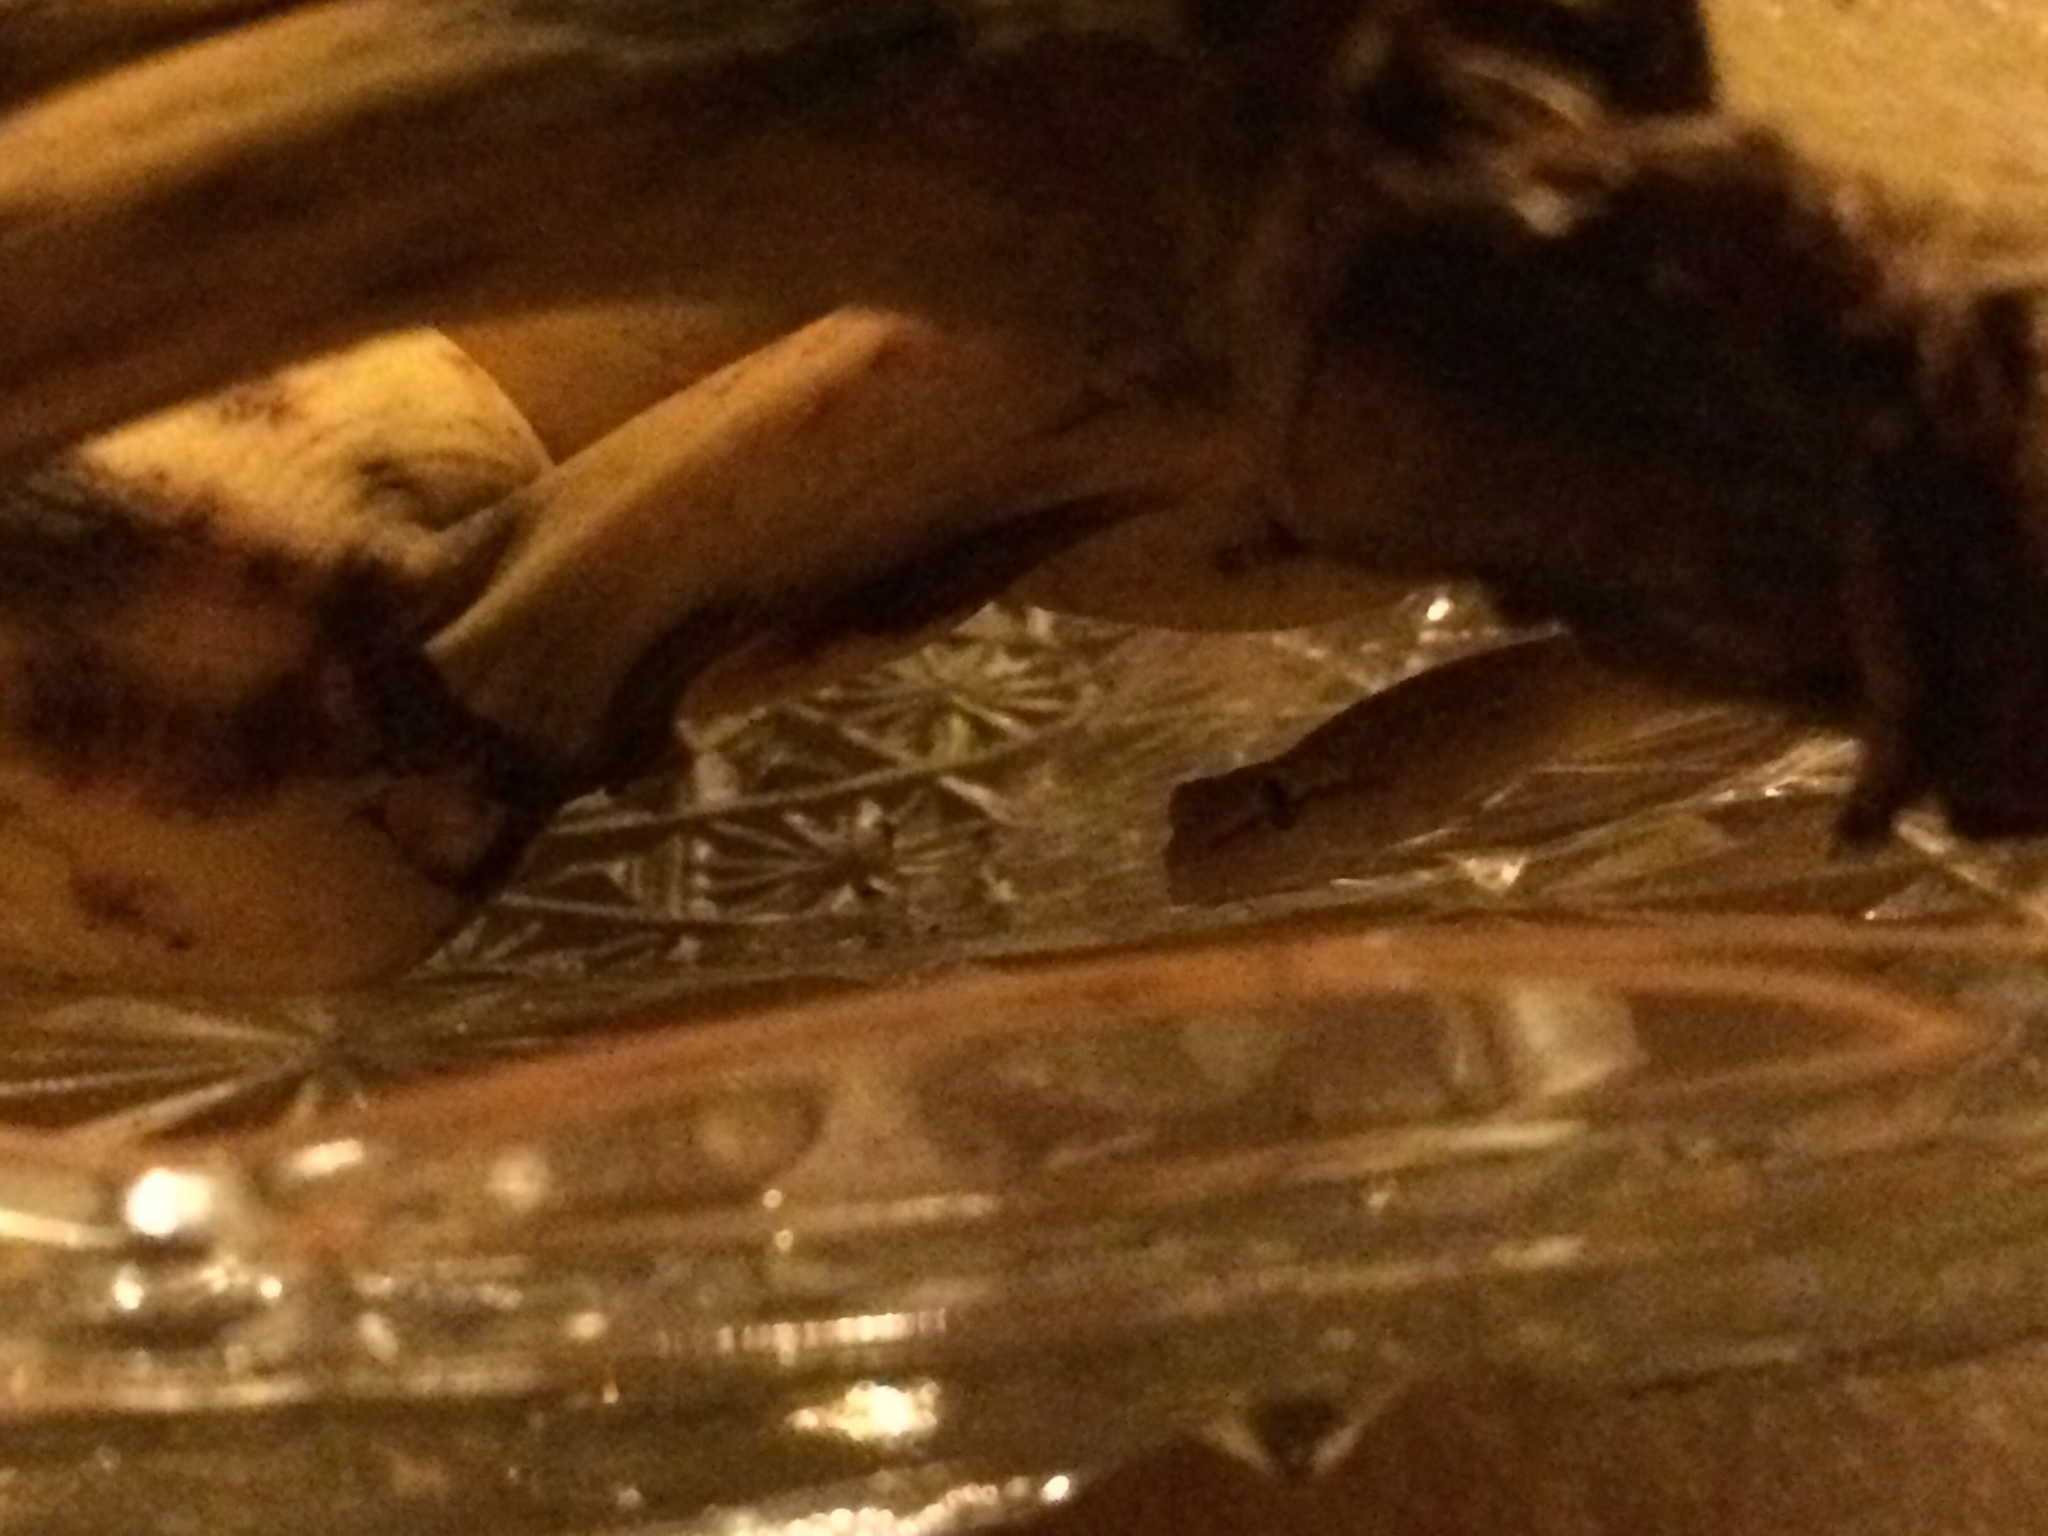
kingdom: Animalia
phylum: Chordata
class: Squamata
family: Gekkonidae
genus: Lepidodactylus
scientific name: Lepidodactylus lugubris
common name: Mourning gecko
